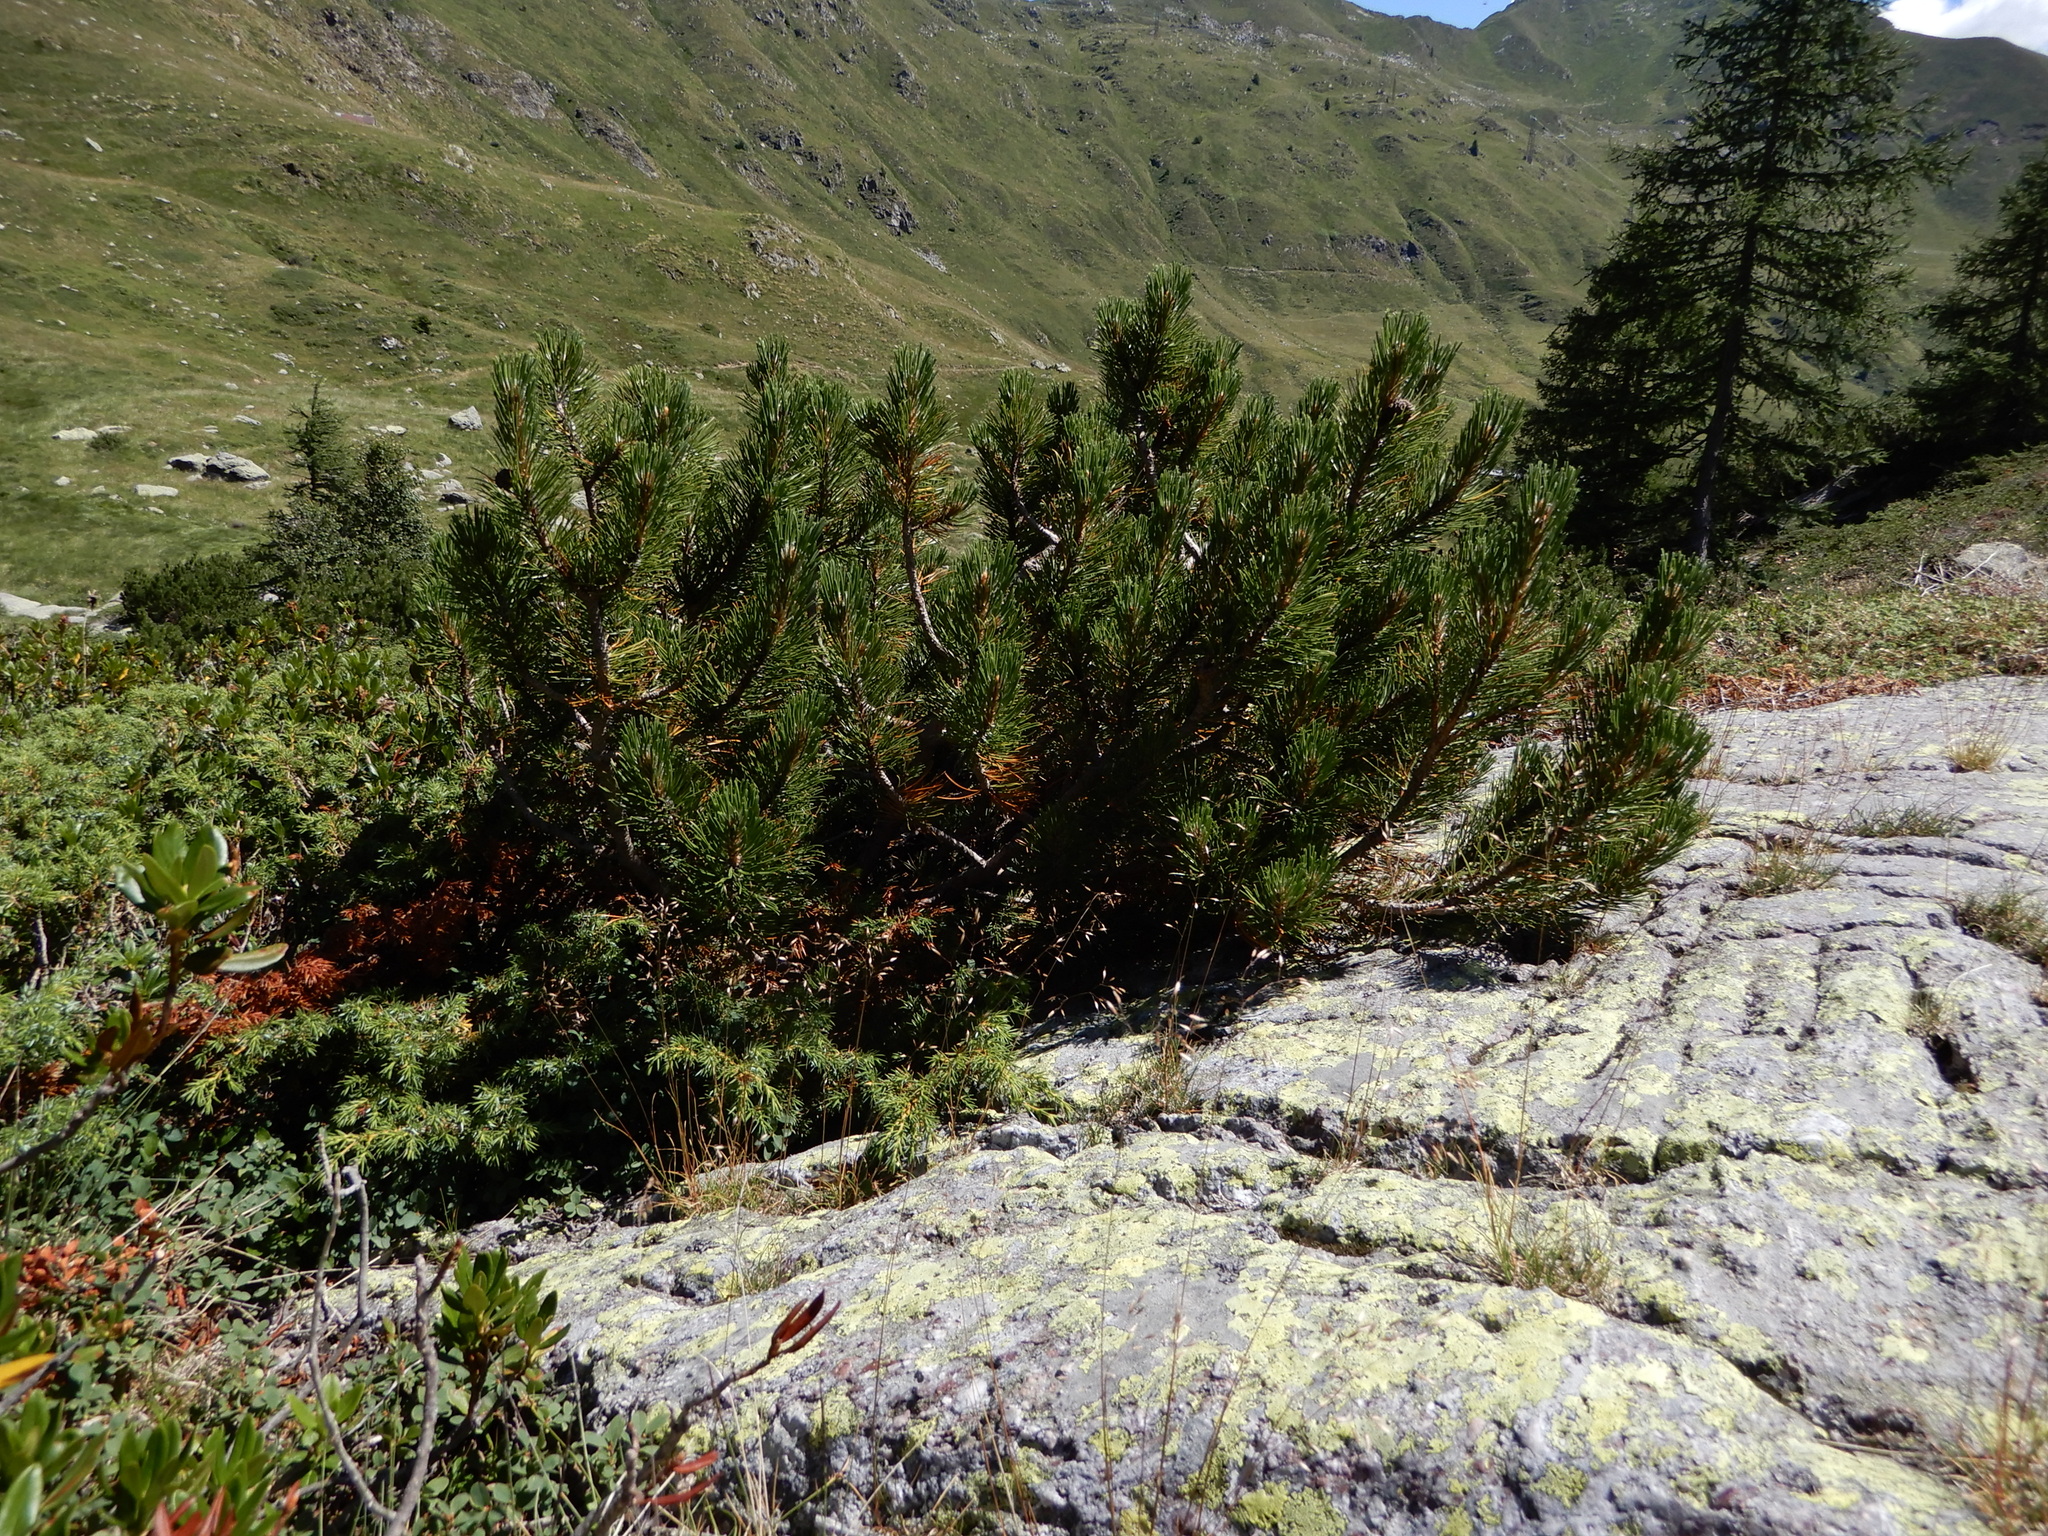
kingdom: Plantae
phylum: Tracheophyta
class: Pinopsida
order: Pinales
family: Pinaceae
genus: Pinus
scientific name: Pinus mugo
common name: Mugo pine
